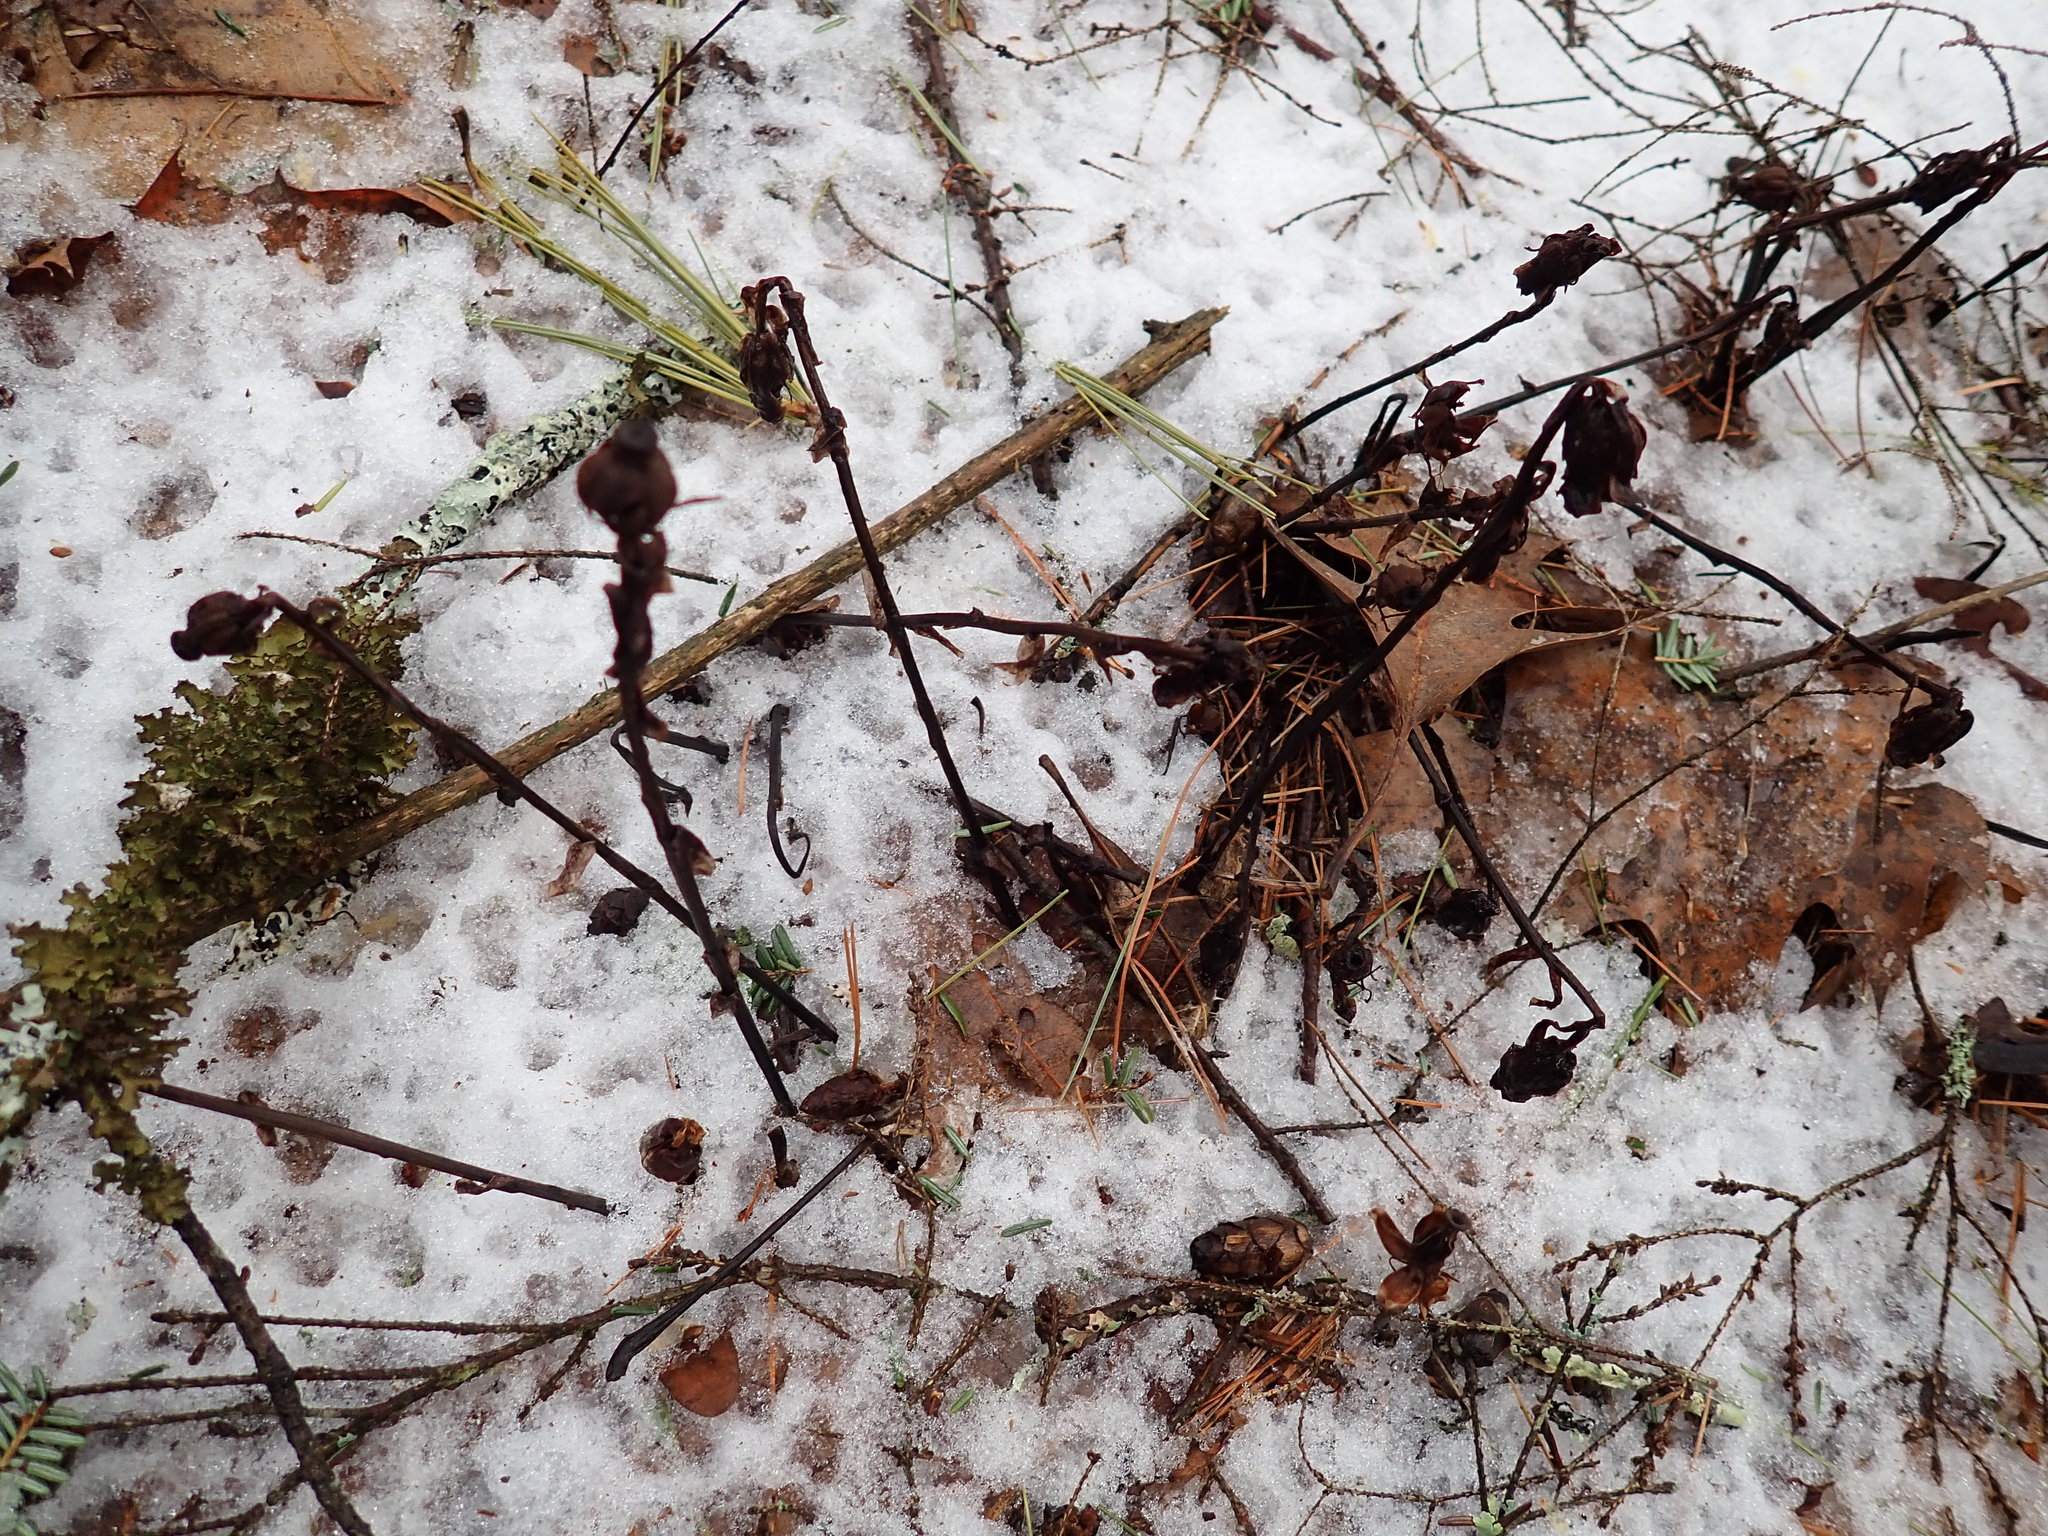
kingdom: Plantae
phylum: Tracheophyta
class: Magnoliopsida
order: Ericales
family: Ericaceae
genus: Monotropa
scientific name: Monotropa uniflora
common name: Convulsion root
